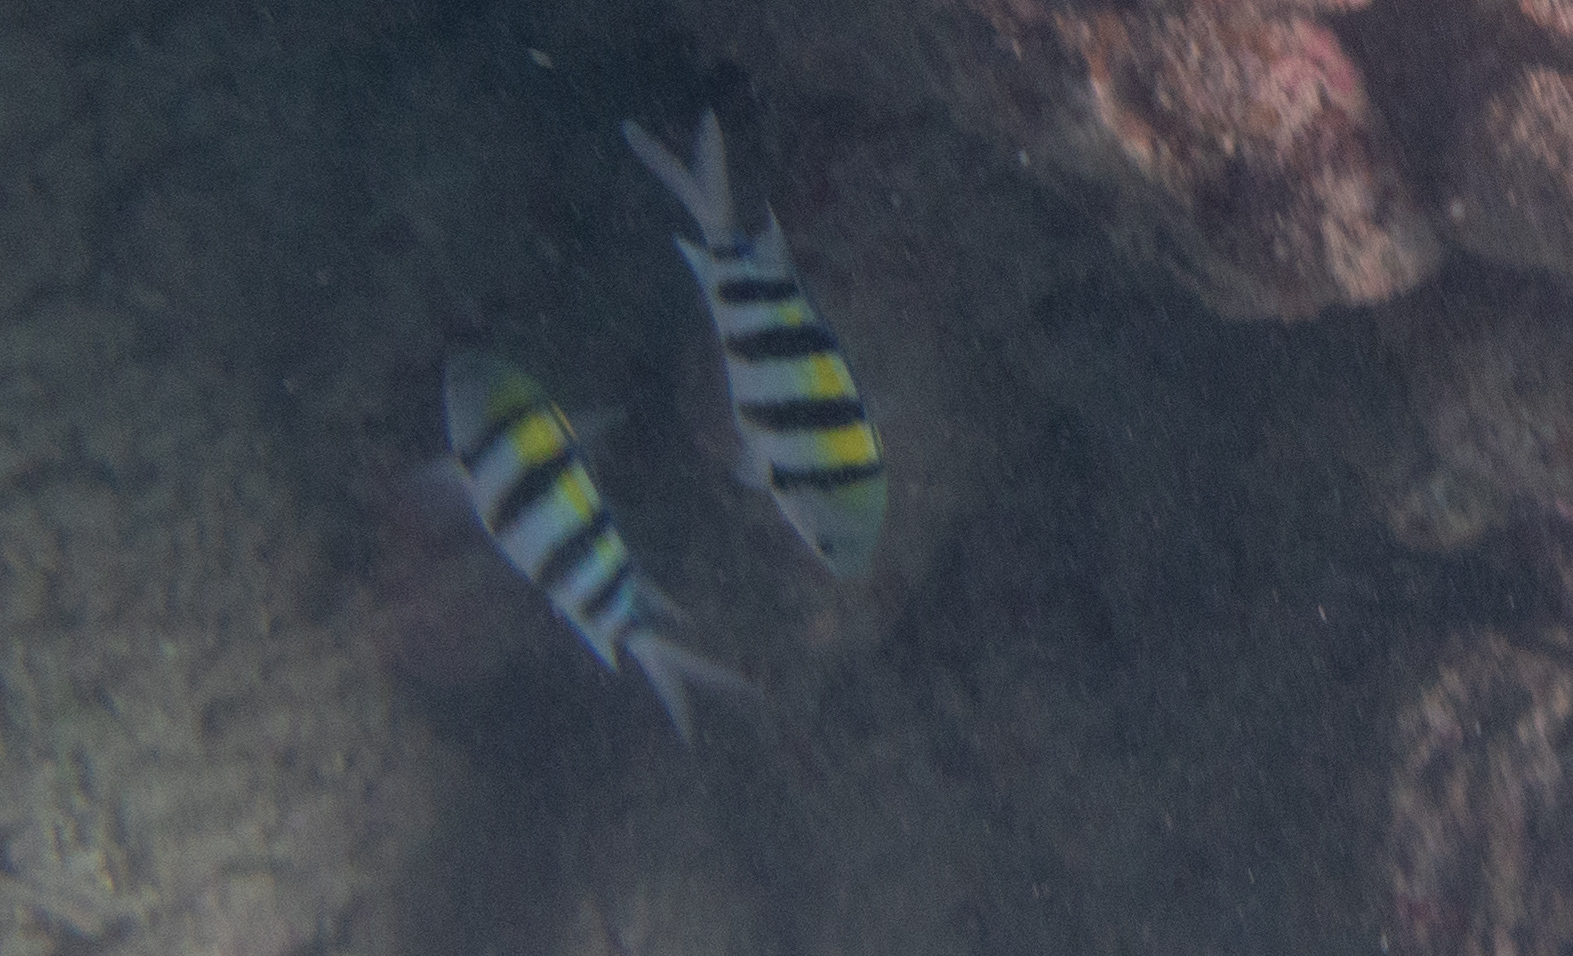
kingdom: Animalia
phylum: Chordata
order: Perciformes
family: Pomacentridae
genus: Abudefduf
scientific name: Abudefduf vaigiensis
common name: Indo-pacific sergeant
